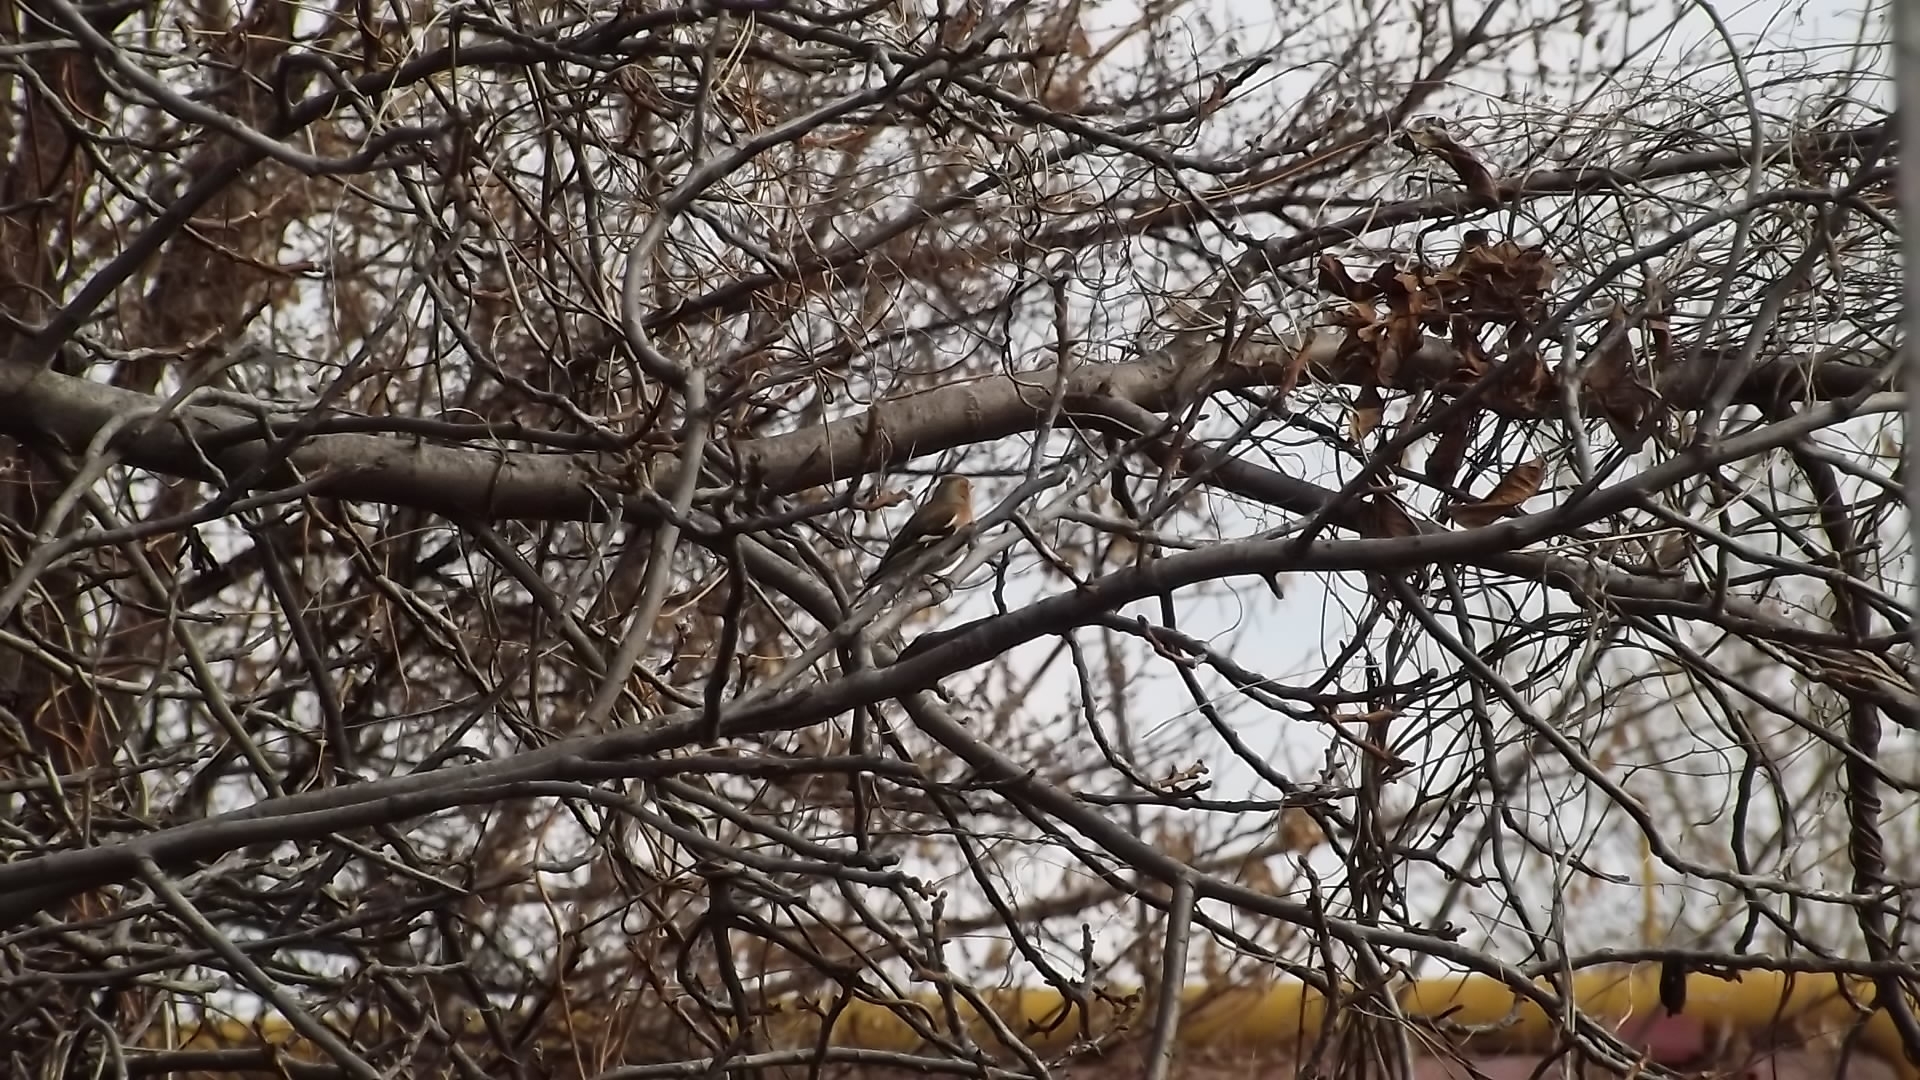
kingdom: Animalia
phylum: Chordata
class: Aves
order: Passeriformes
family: Fringillidae
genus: Fringilla
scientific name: Fringilla coelebs
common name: Common chaffinch
